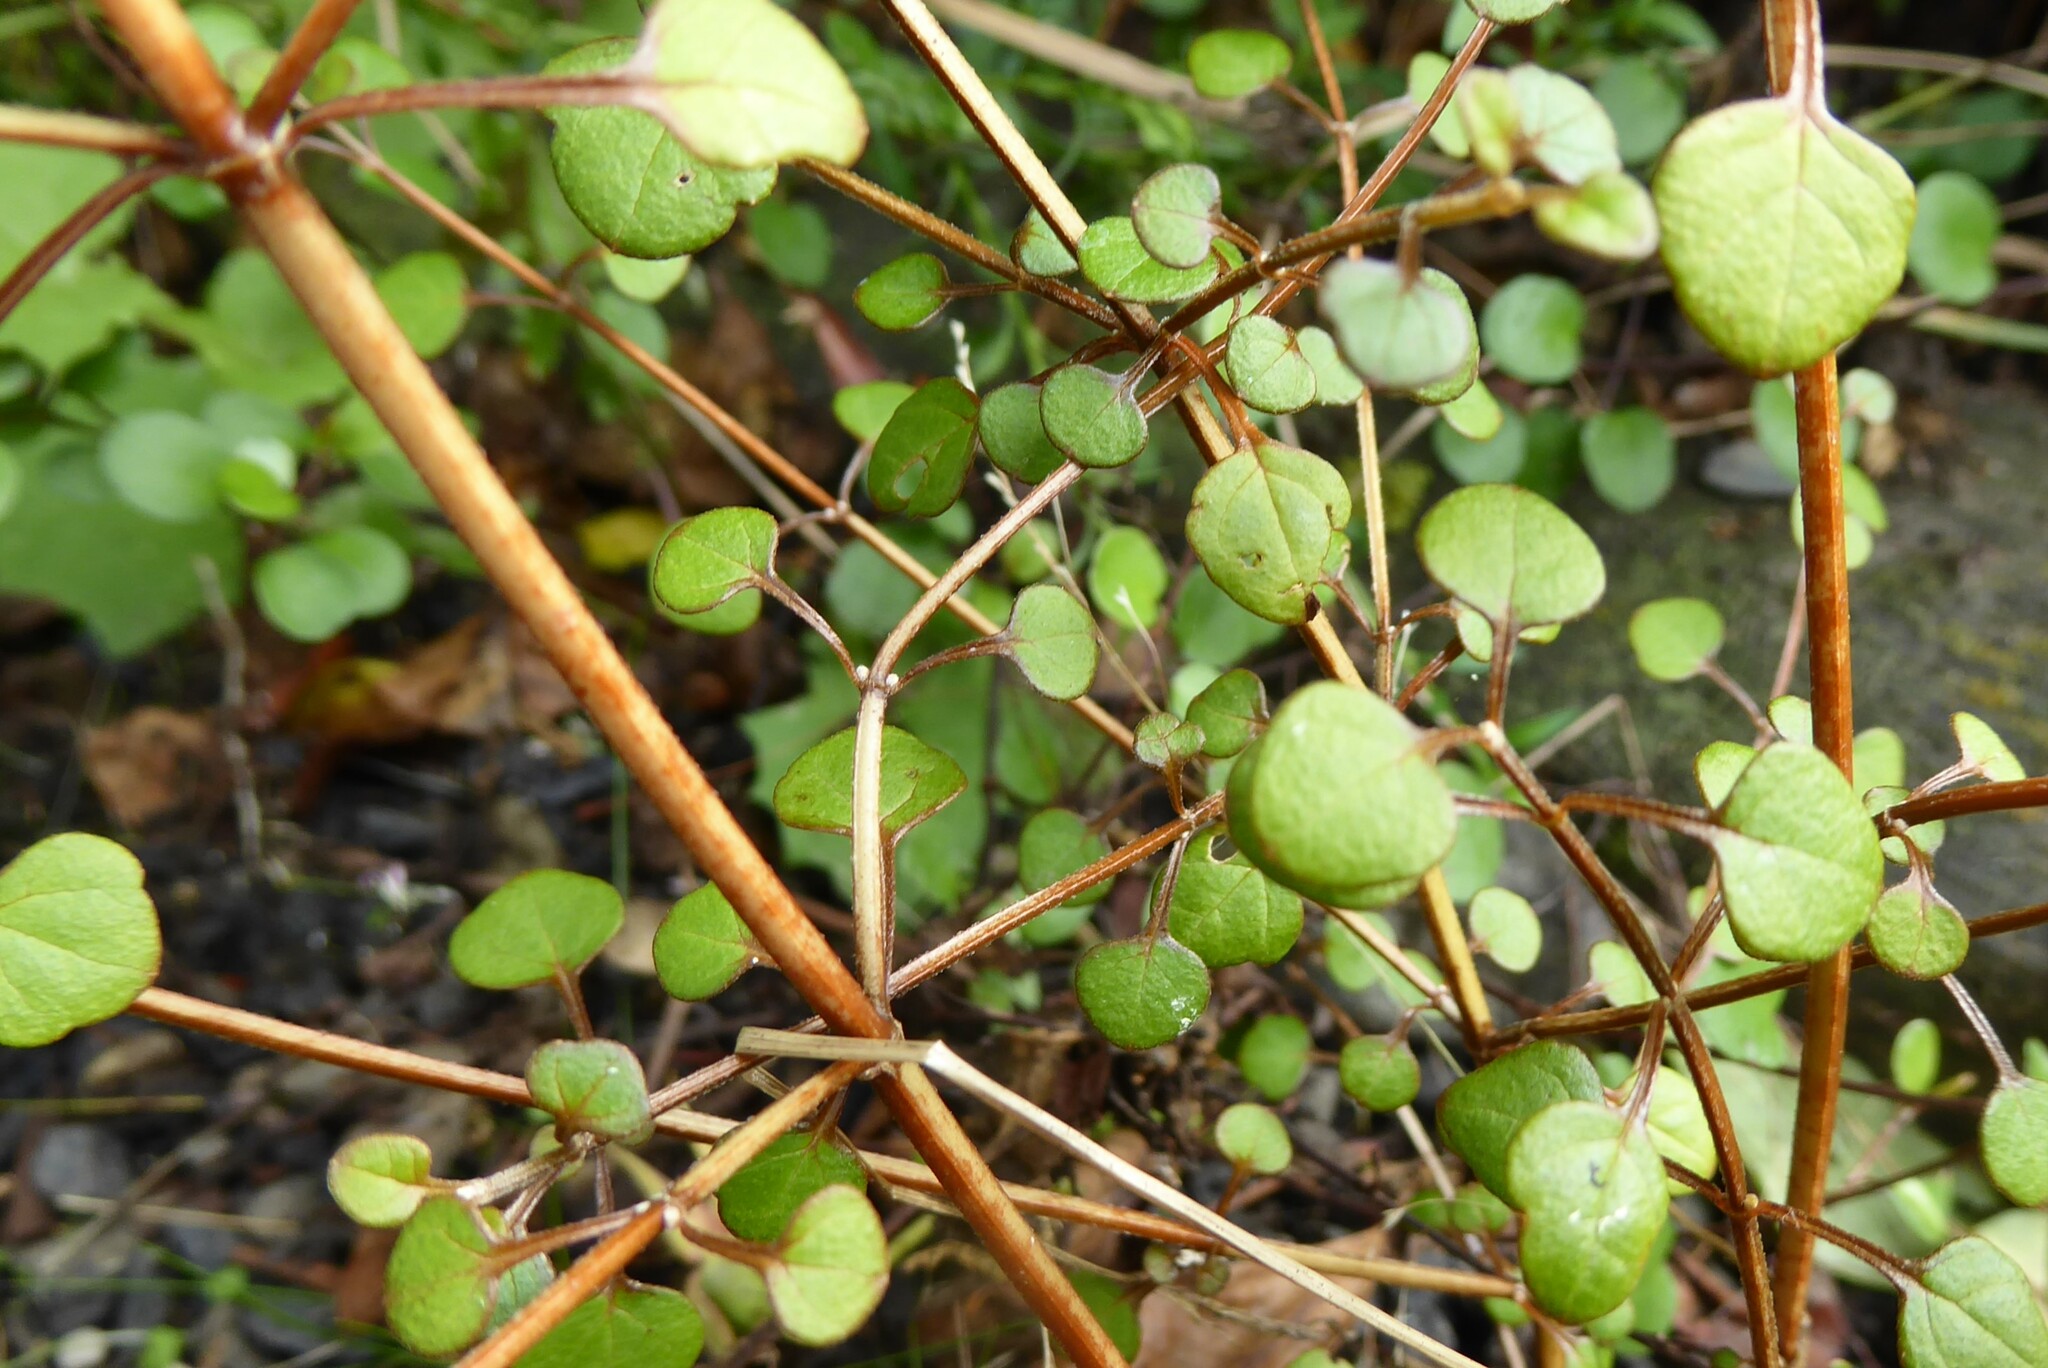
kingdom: Plantae
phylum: Tracheophyta
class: Magnoliopsida
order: Lamiales
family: Lamiaceae
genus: Teucrium
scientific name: Teucrium parvifolium
